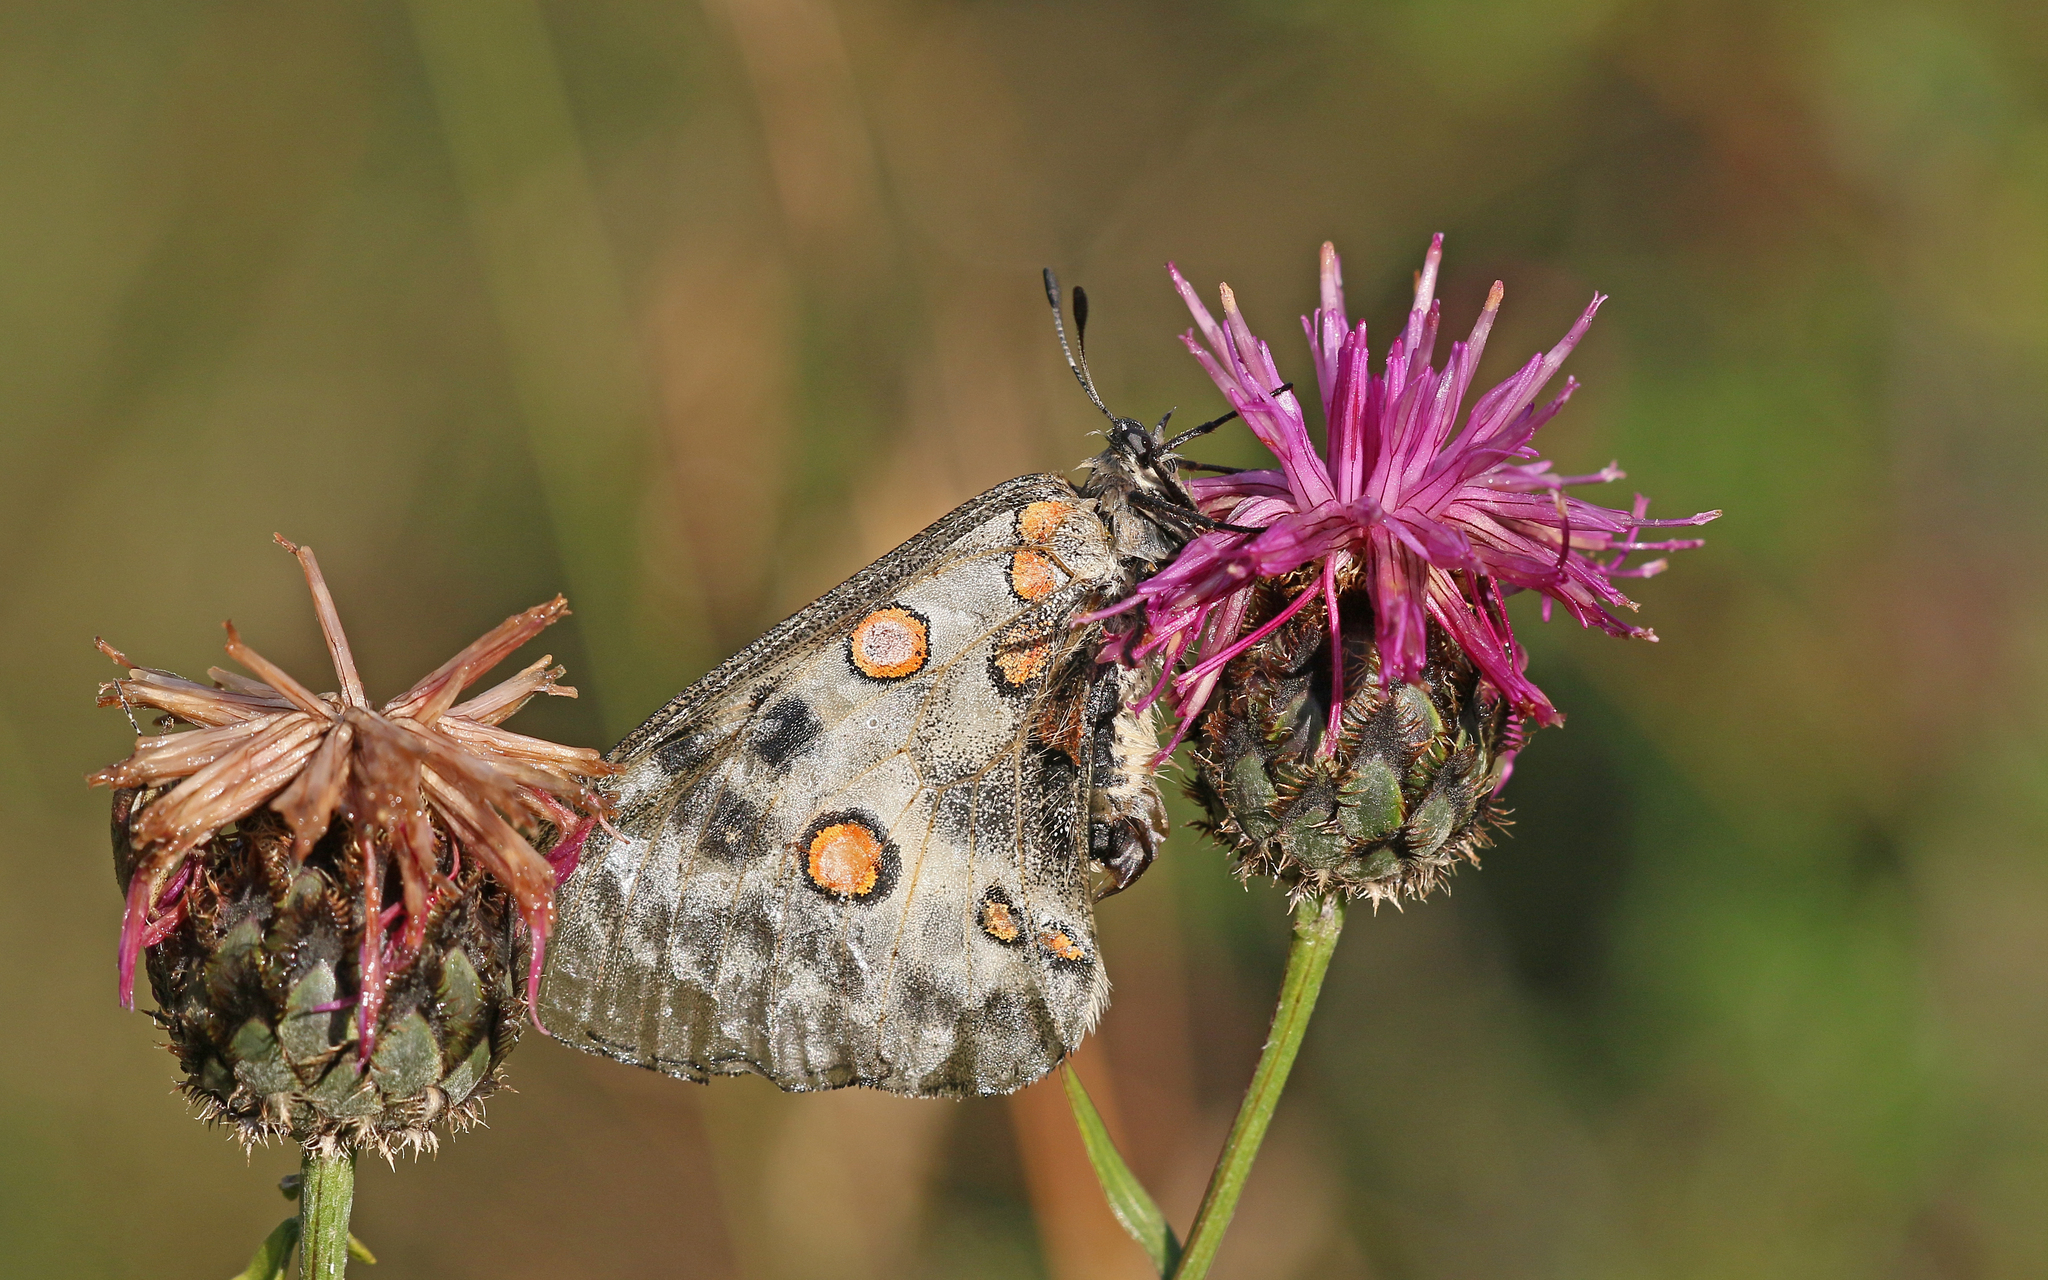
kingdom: Animalia
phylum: Arthropoda
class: Insecta
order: Lepidoptera
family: Papilionidae
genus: Parnassius
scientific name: Parnassius apollo
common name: Apollo
